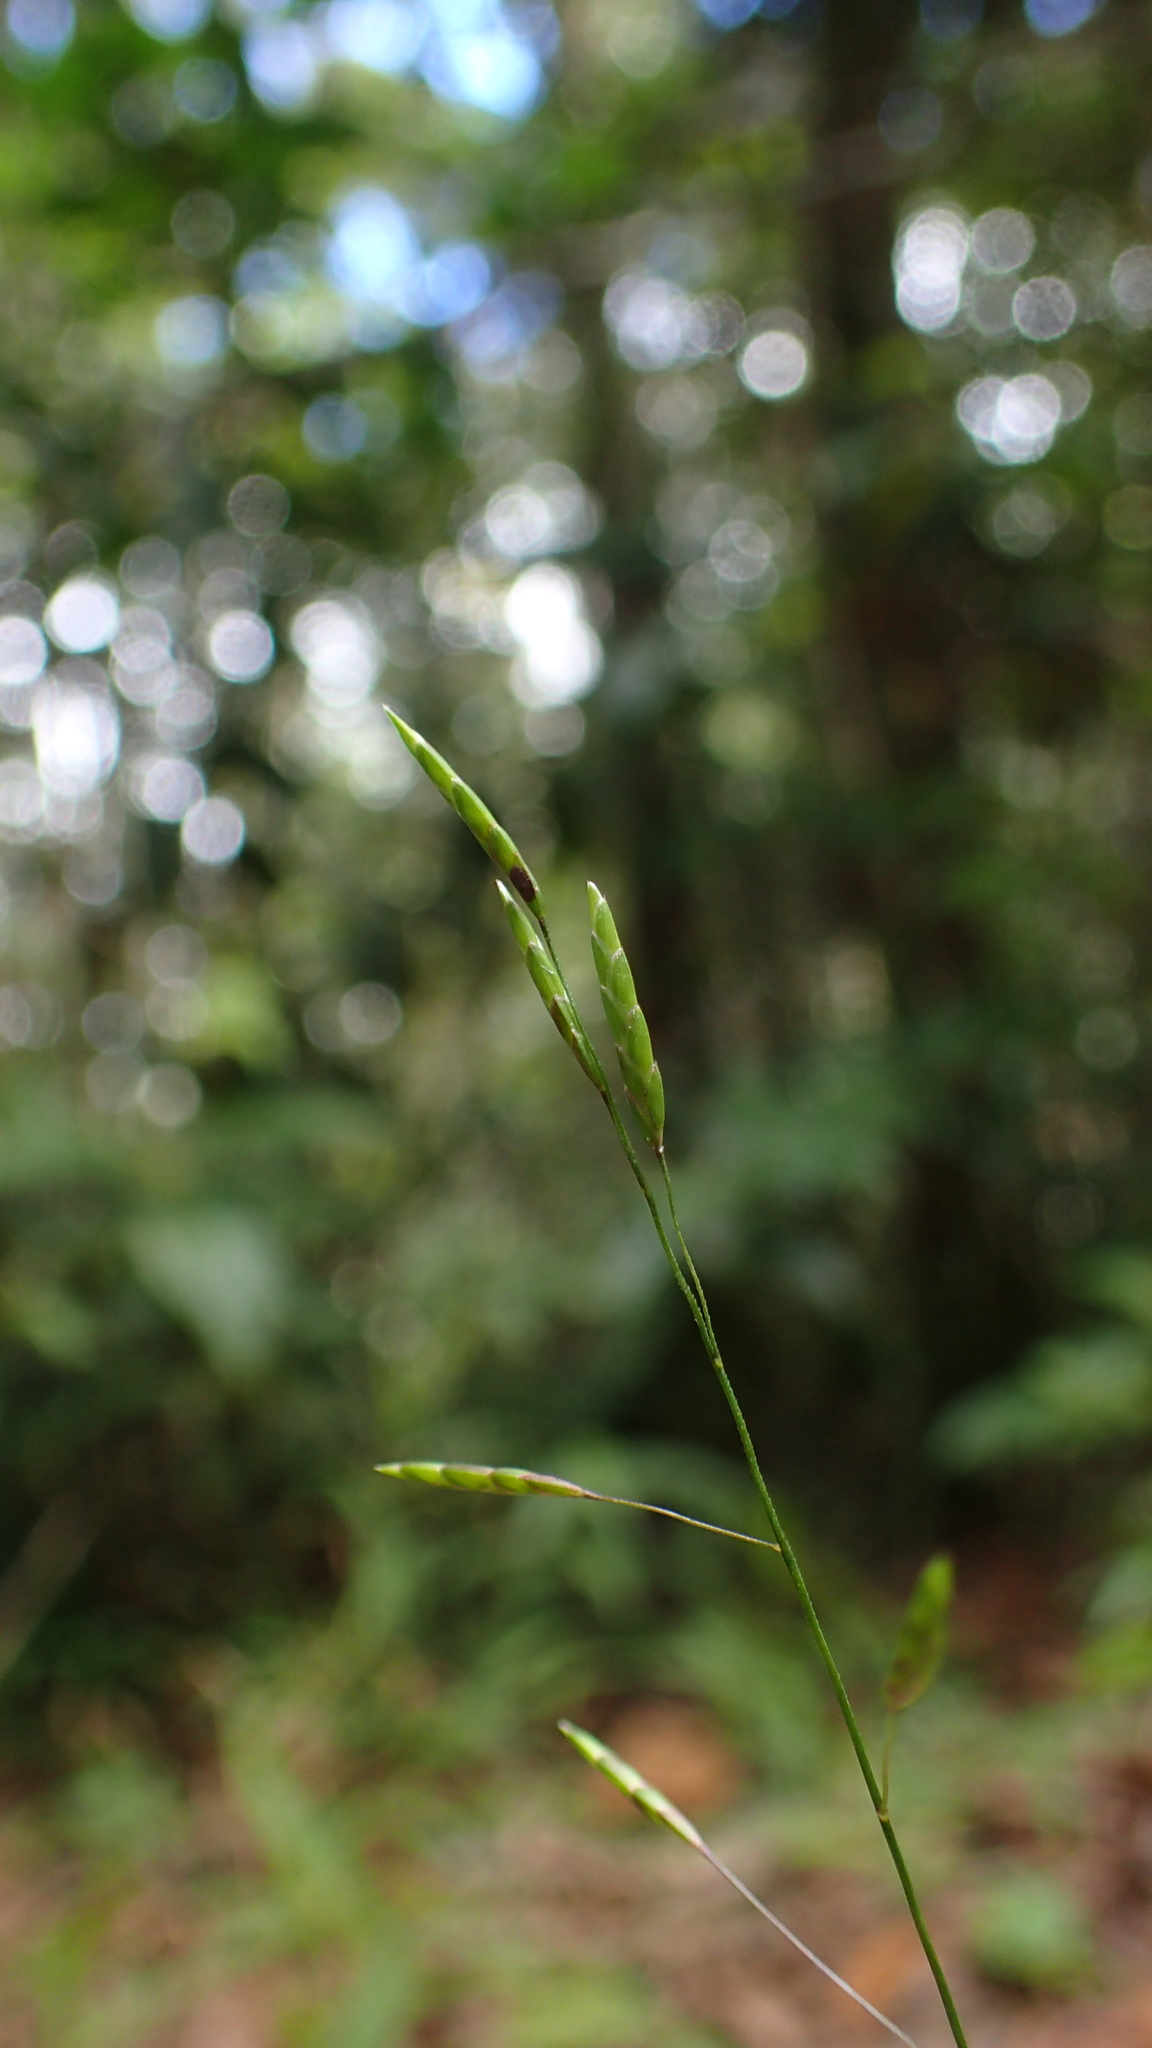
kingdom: Plantae
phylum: Tracheophyta
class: Liliopsida
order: Poales
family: Poaceae
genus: Megastachya
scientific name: Megastachya mucronata
